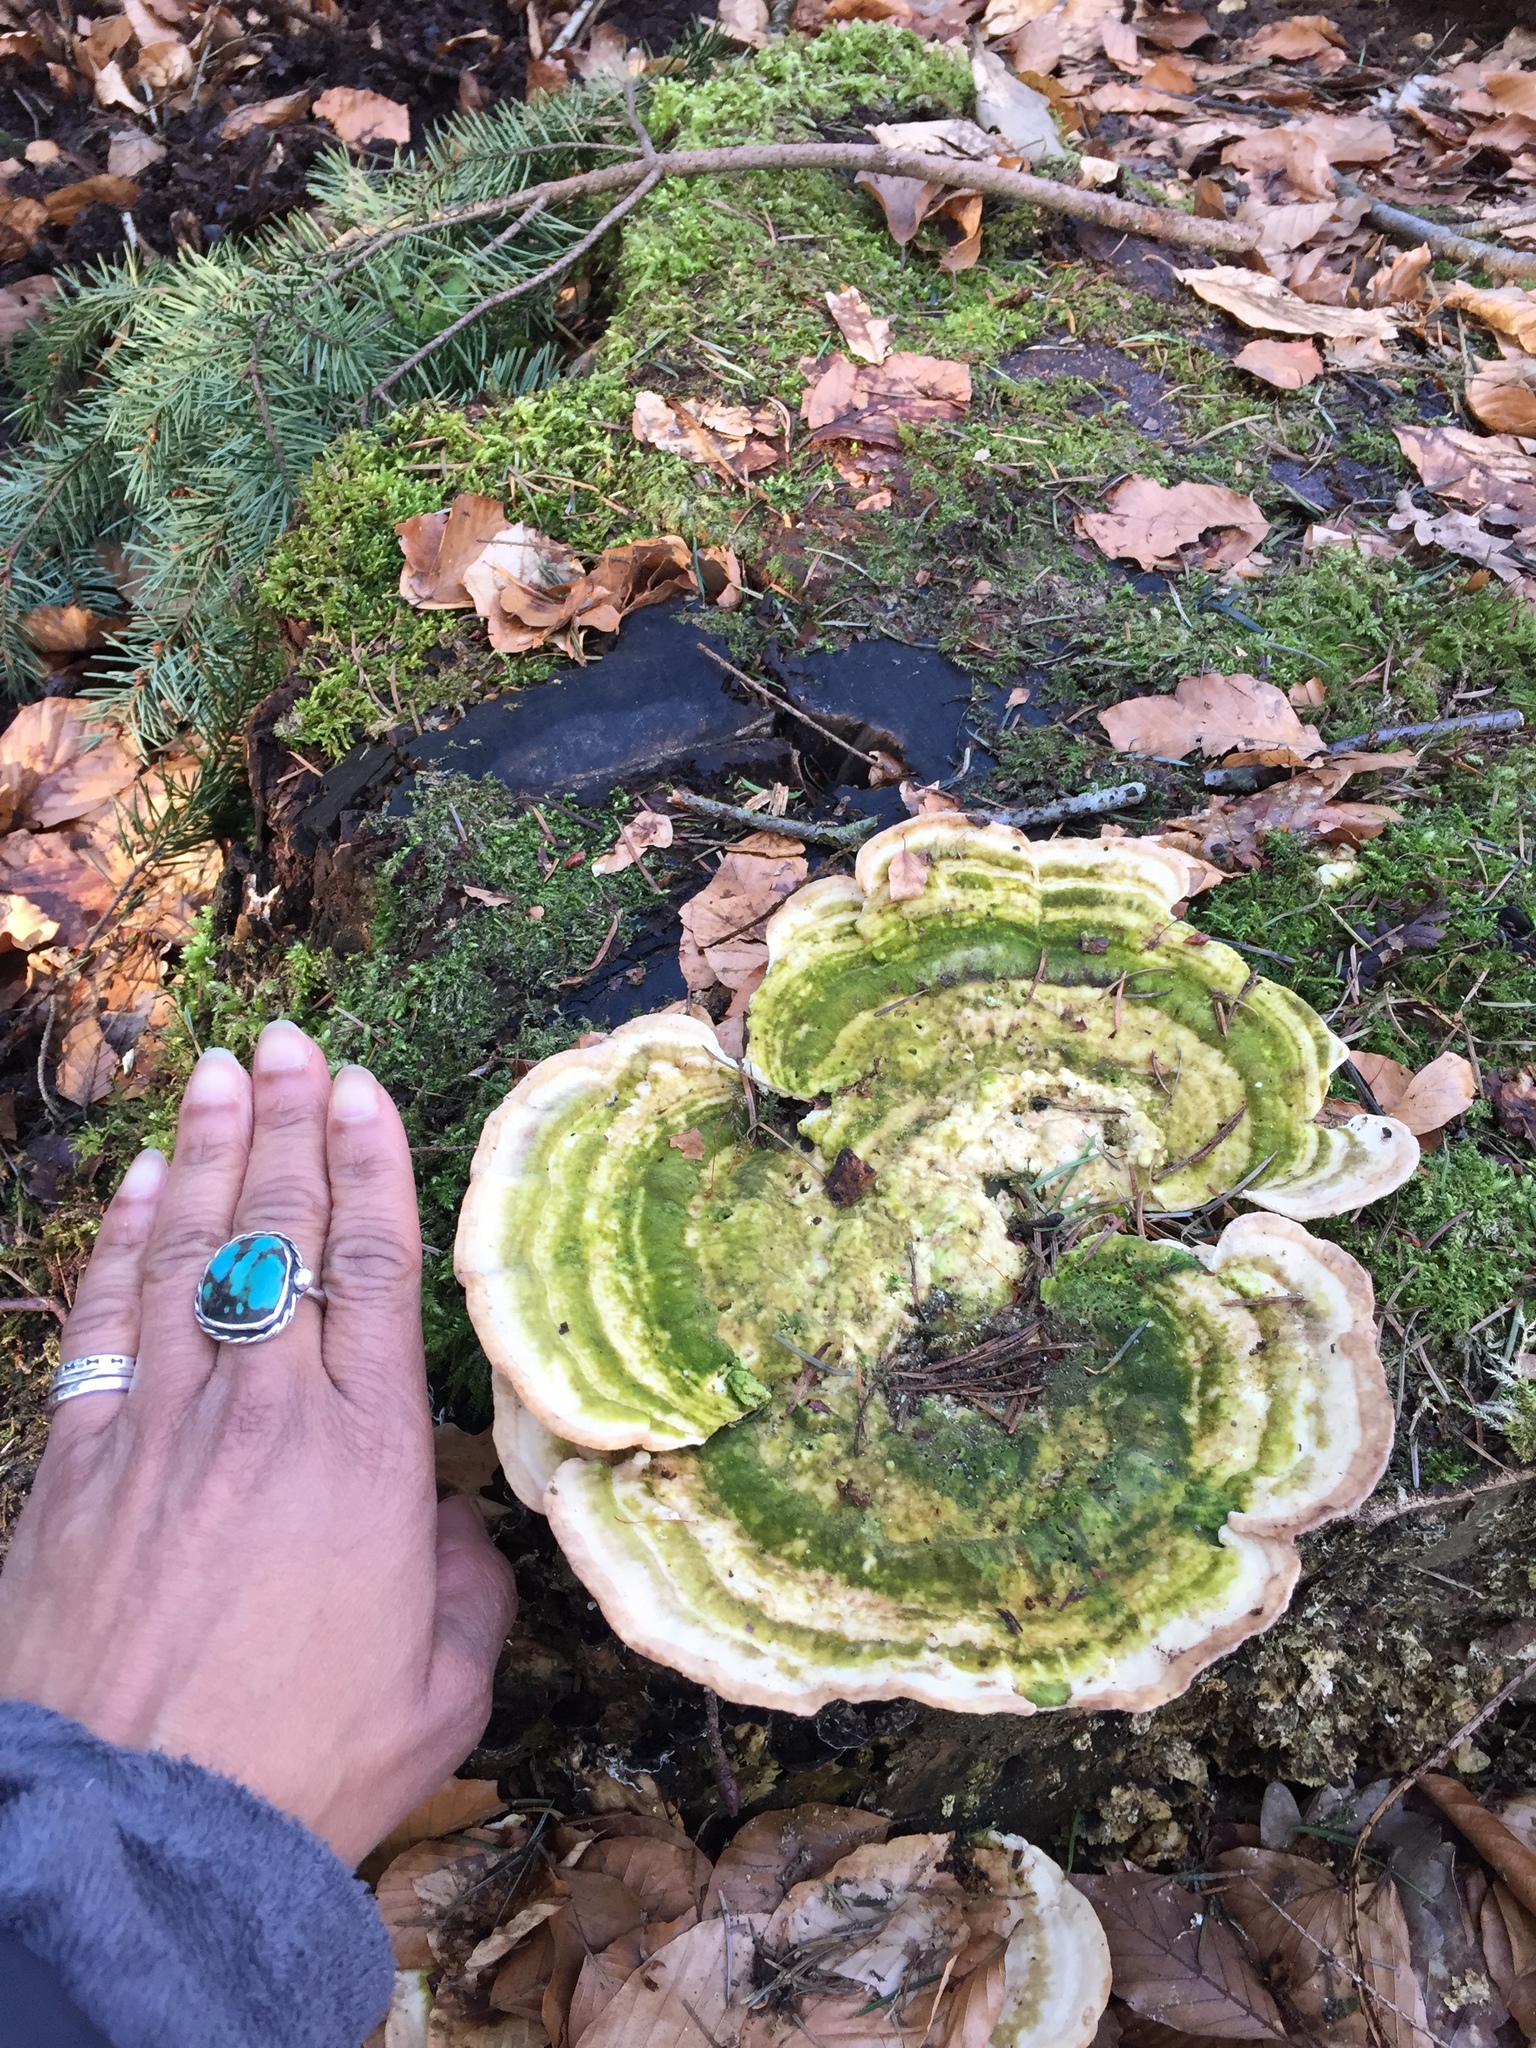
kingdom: Fungi
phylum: Basidiomycota
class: Agaricomycetes
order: Polyporales
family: Polyporaceae
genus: Trametes
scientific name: Trametes versicolor
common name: Turkeytail
